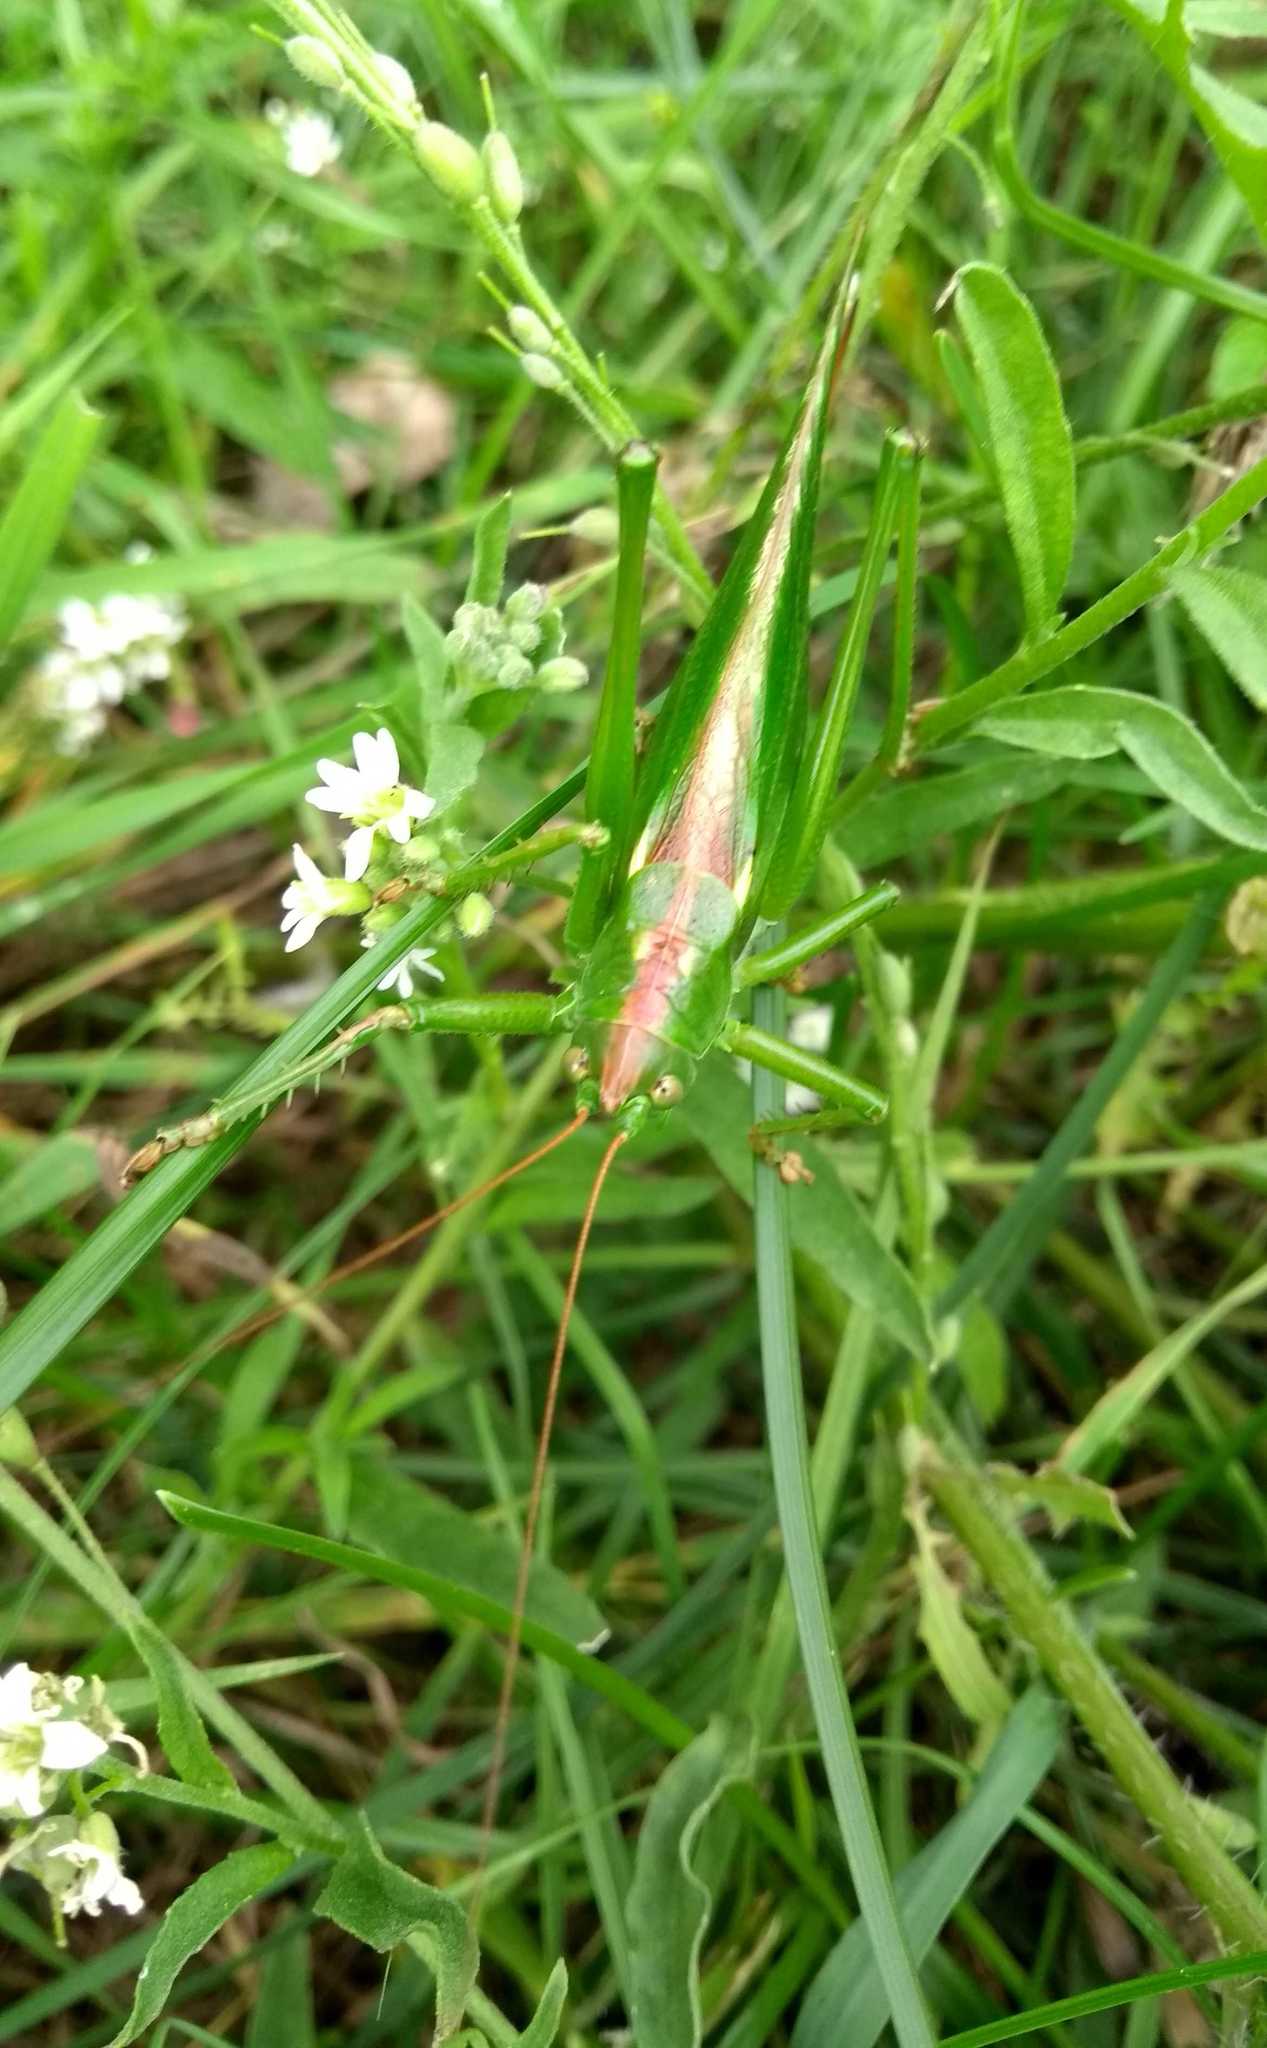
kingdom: Animalia
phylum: Arthropoda
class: Insecta
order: Orthoptera
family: Tettigoniidae
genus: Tettigonia
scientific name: Tettigonia viridissima
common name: Great green bush-cricket
